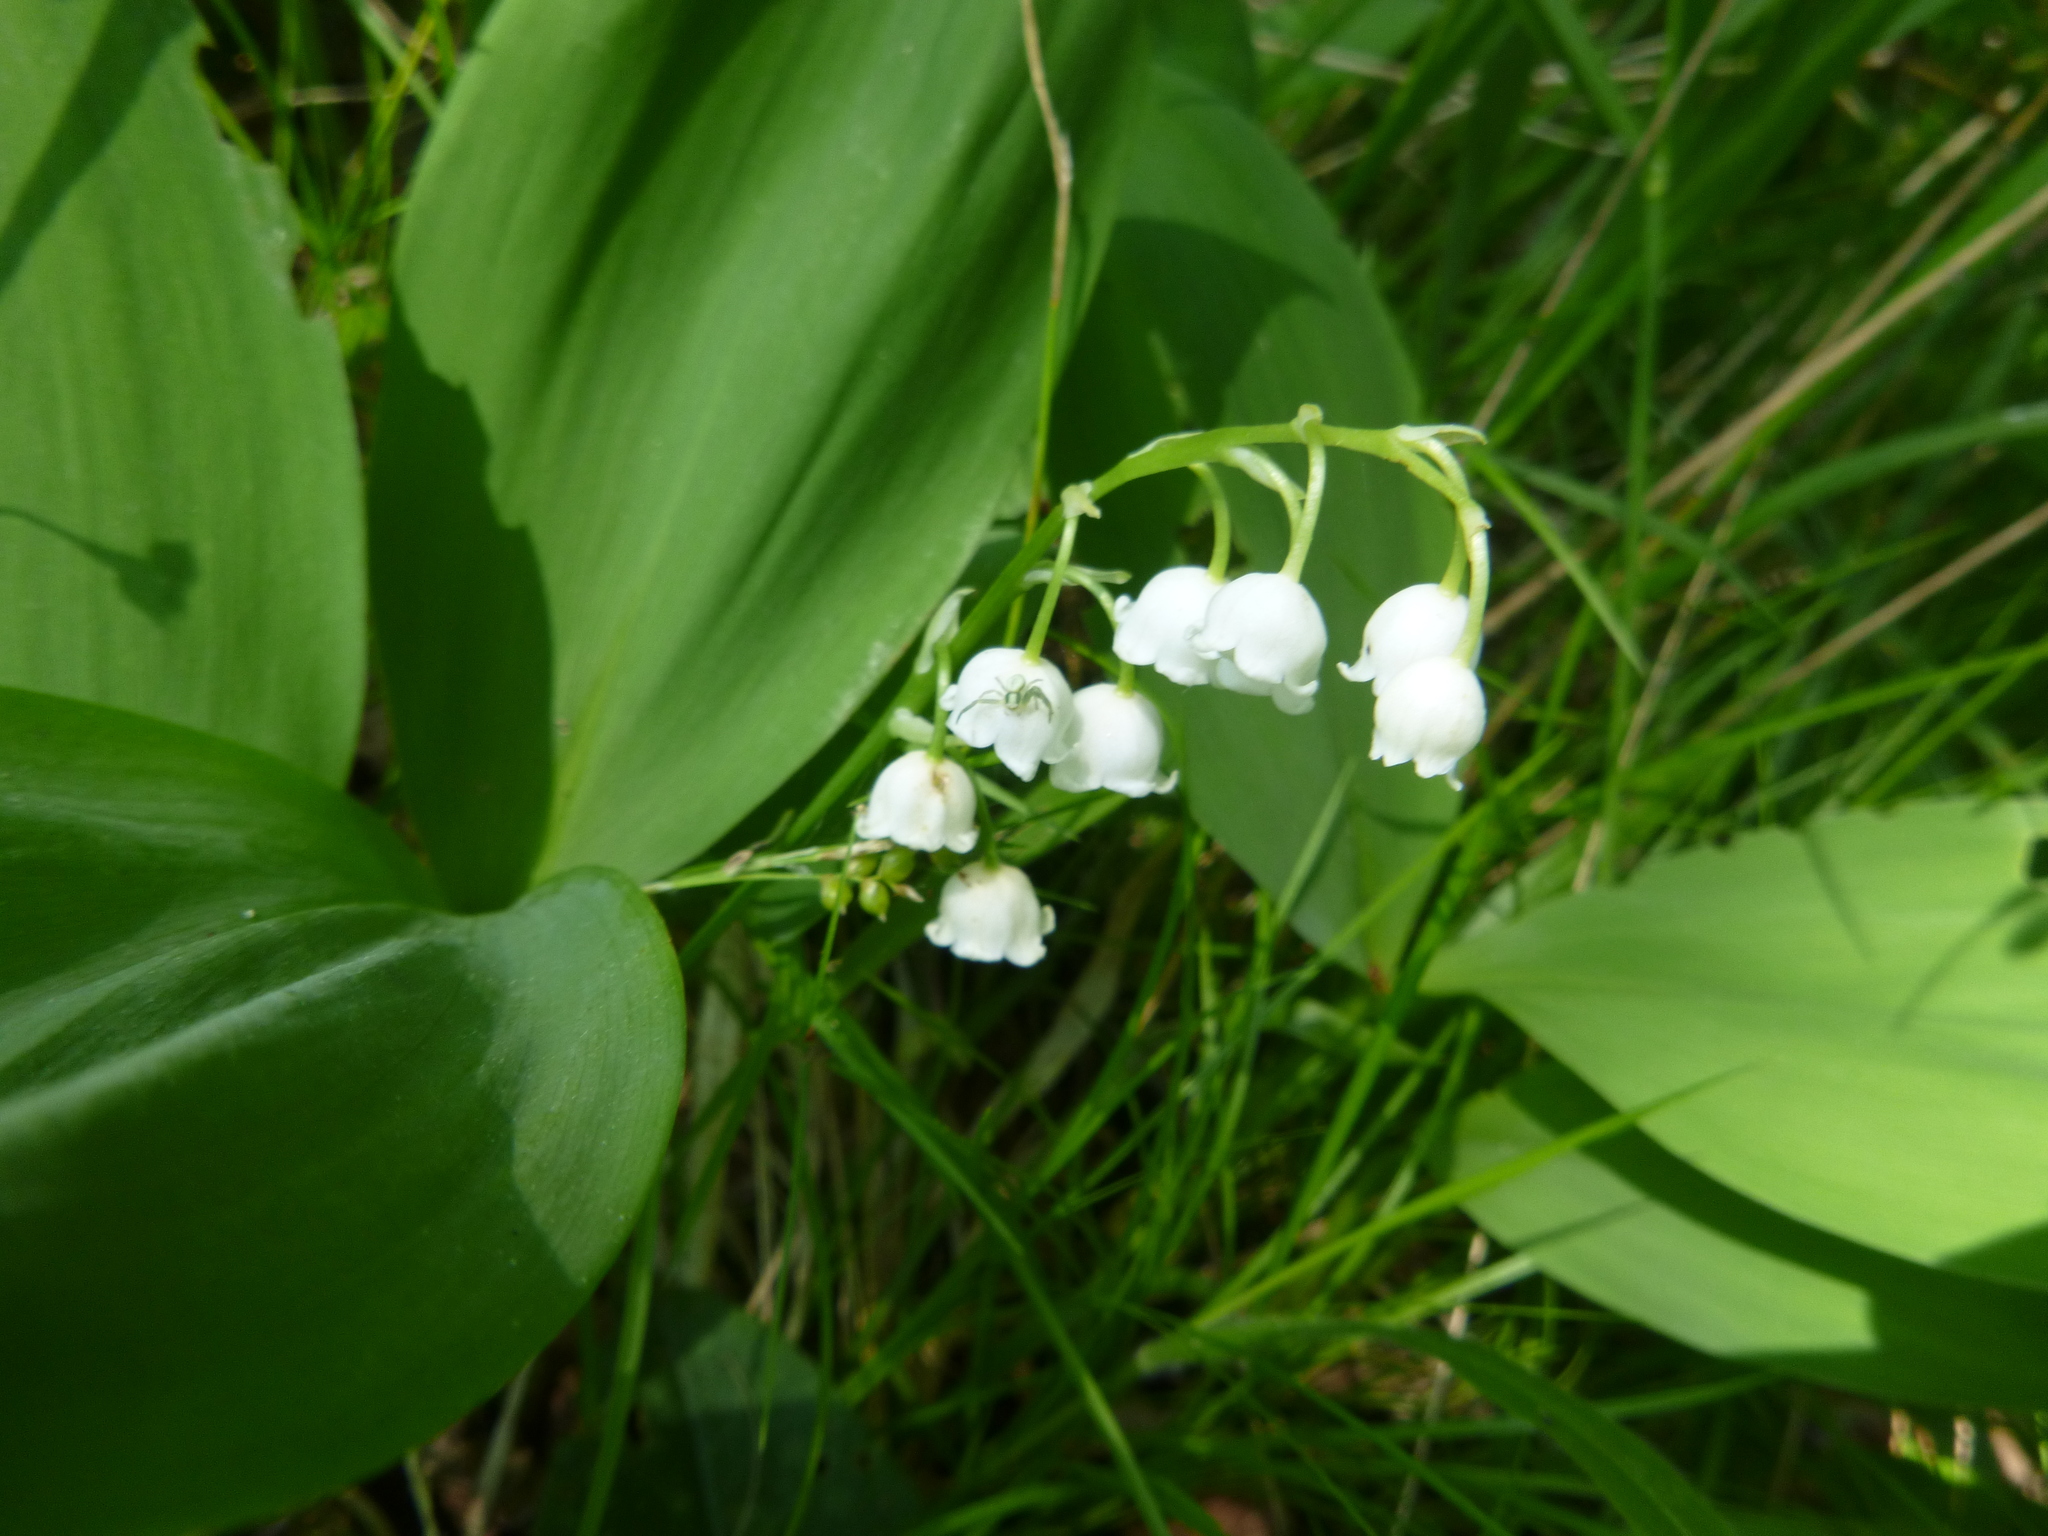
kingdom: Plantae
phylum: Tracheophyta
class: Liliopsida
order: Asparagales
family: Asparagaceae
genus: Convallaria
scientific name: Convallaria majalis
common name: Lily-of-the-valley
